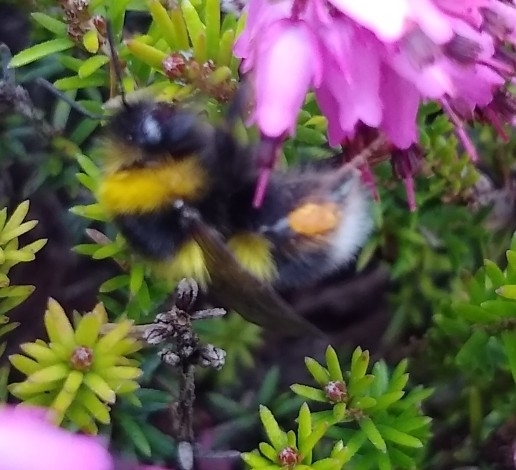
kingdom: Animalia
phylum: Arthropoda
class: Insecta
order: Hymenoptera
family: Apidae
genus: Bombus
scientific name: Bombus jonellus
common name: Heath humble-bee
